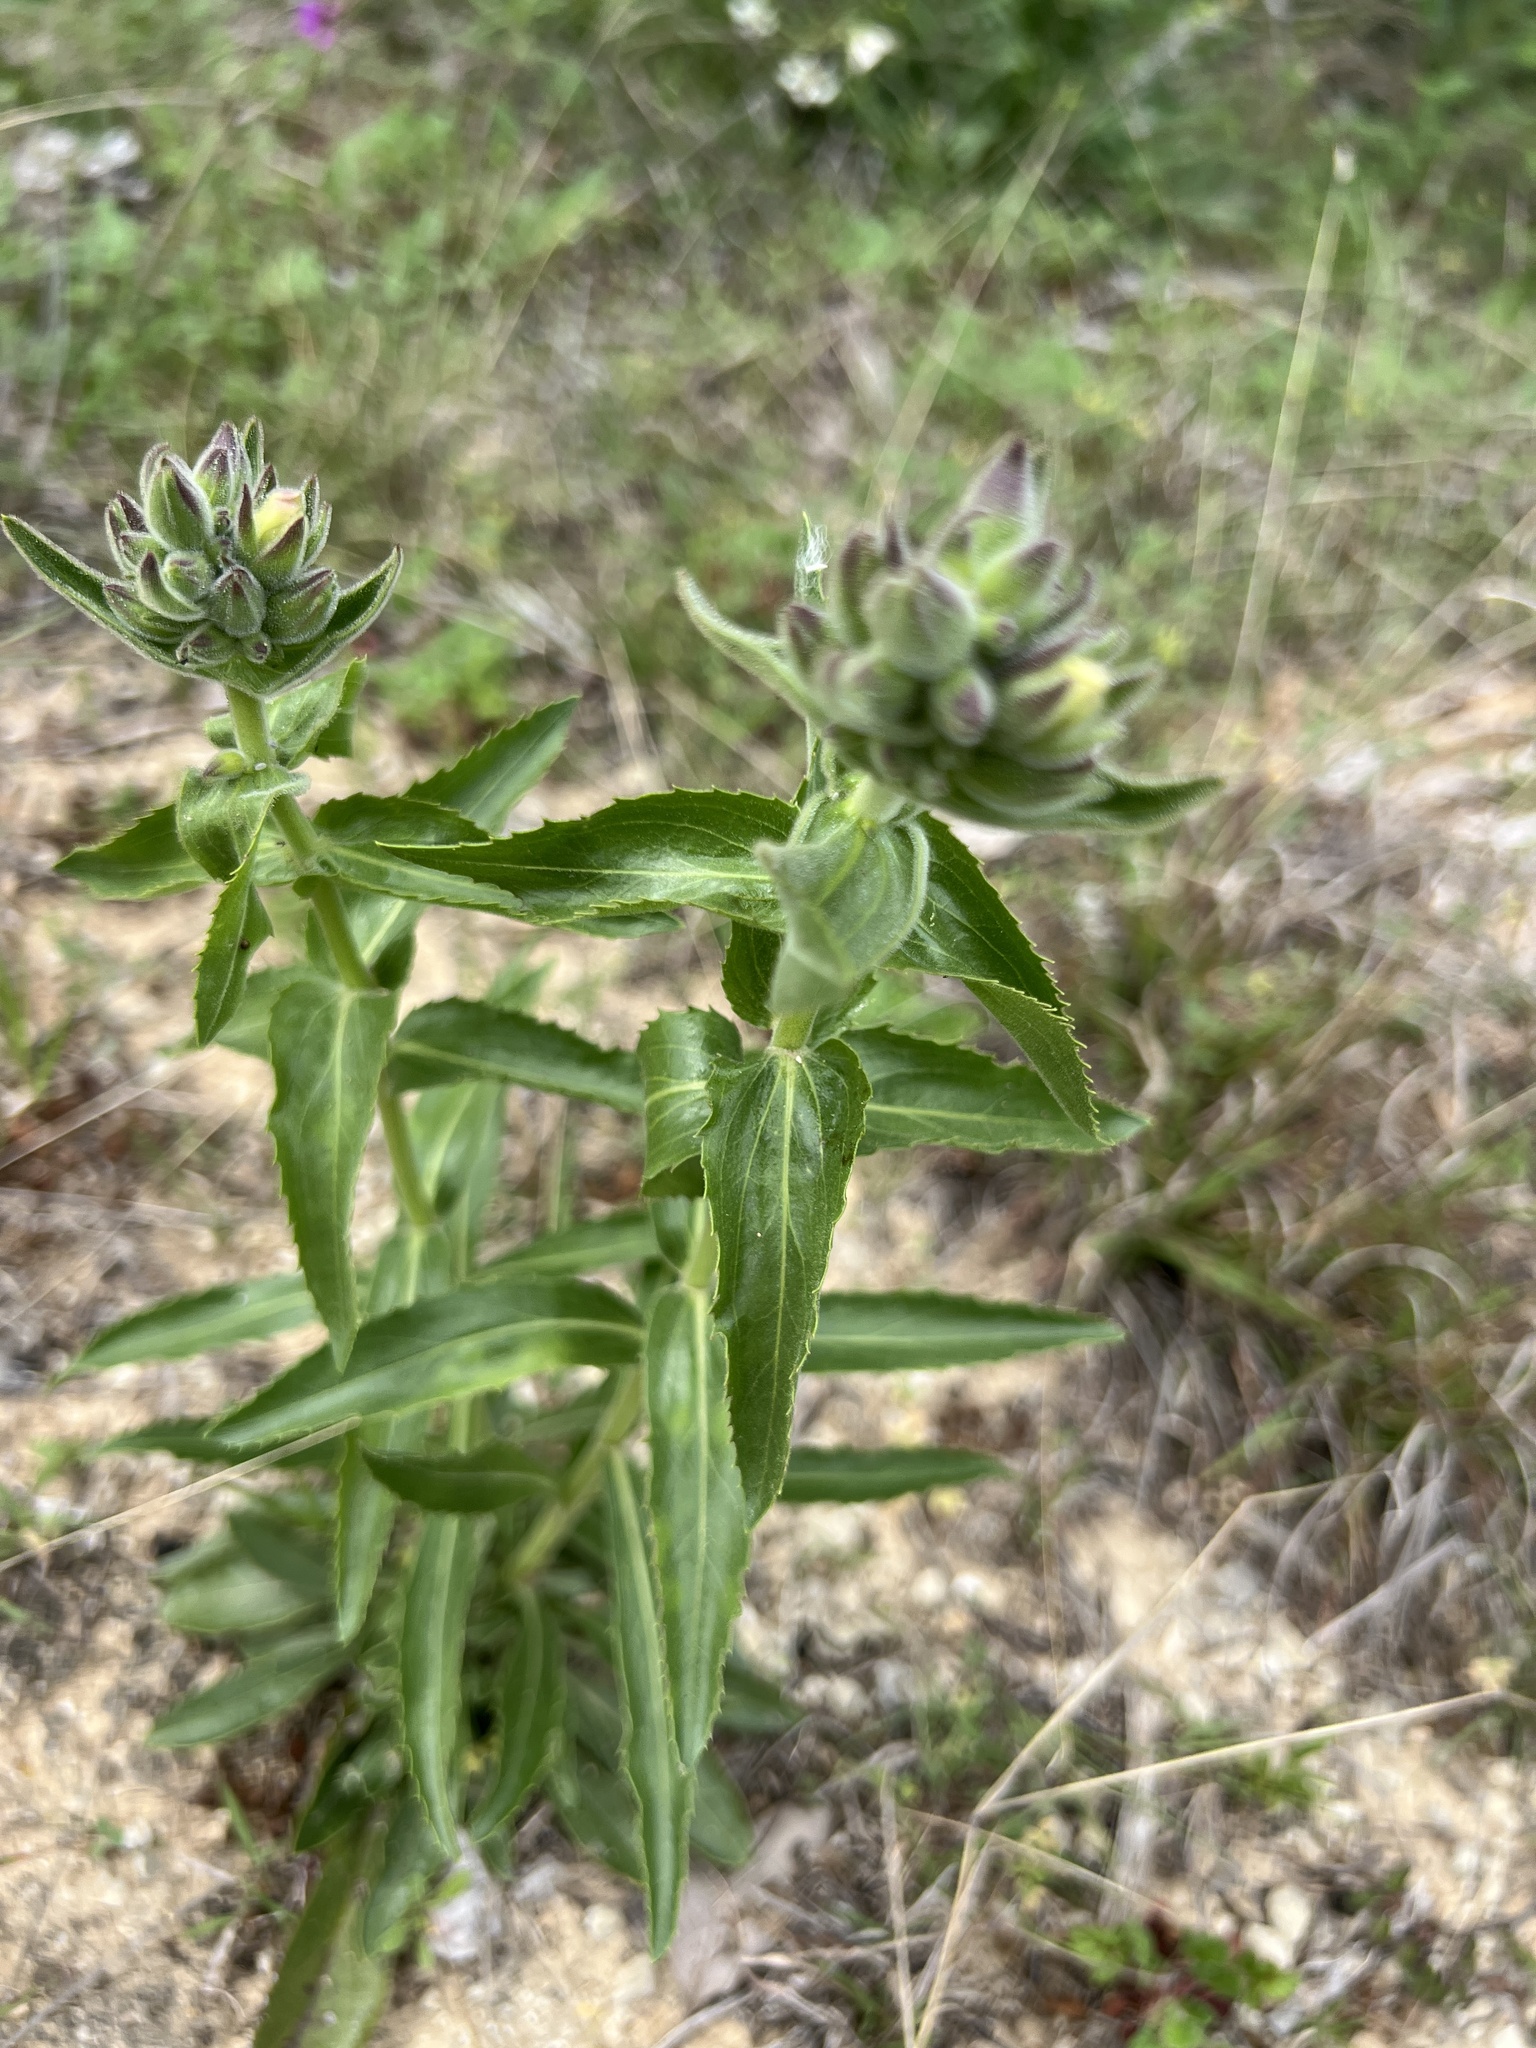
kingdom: Plantae
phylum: Tracheophyta
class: Magnoliopsida
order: Lamiales
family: Plantaginaceae
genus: Penstemon
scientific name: Penstemon cobaea
